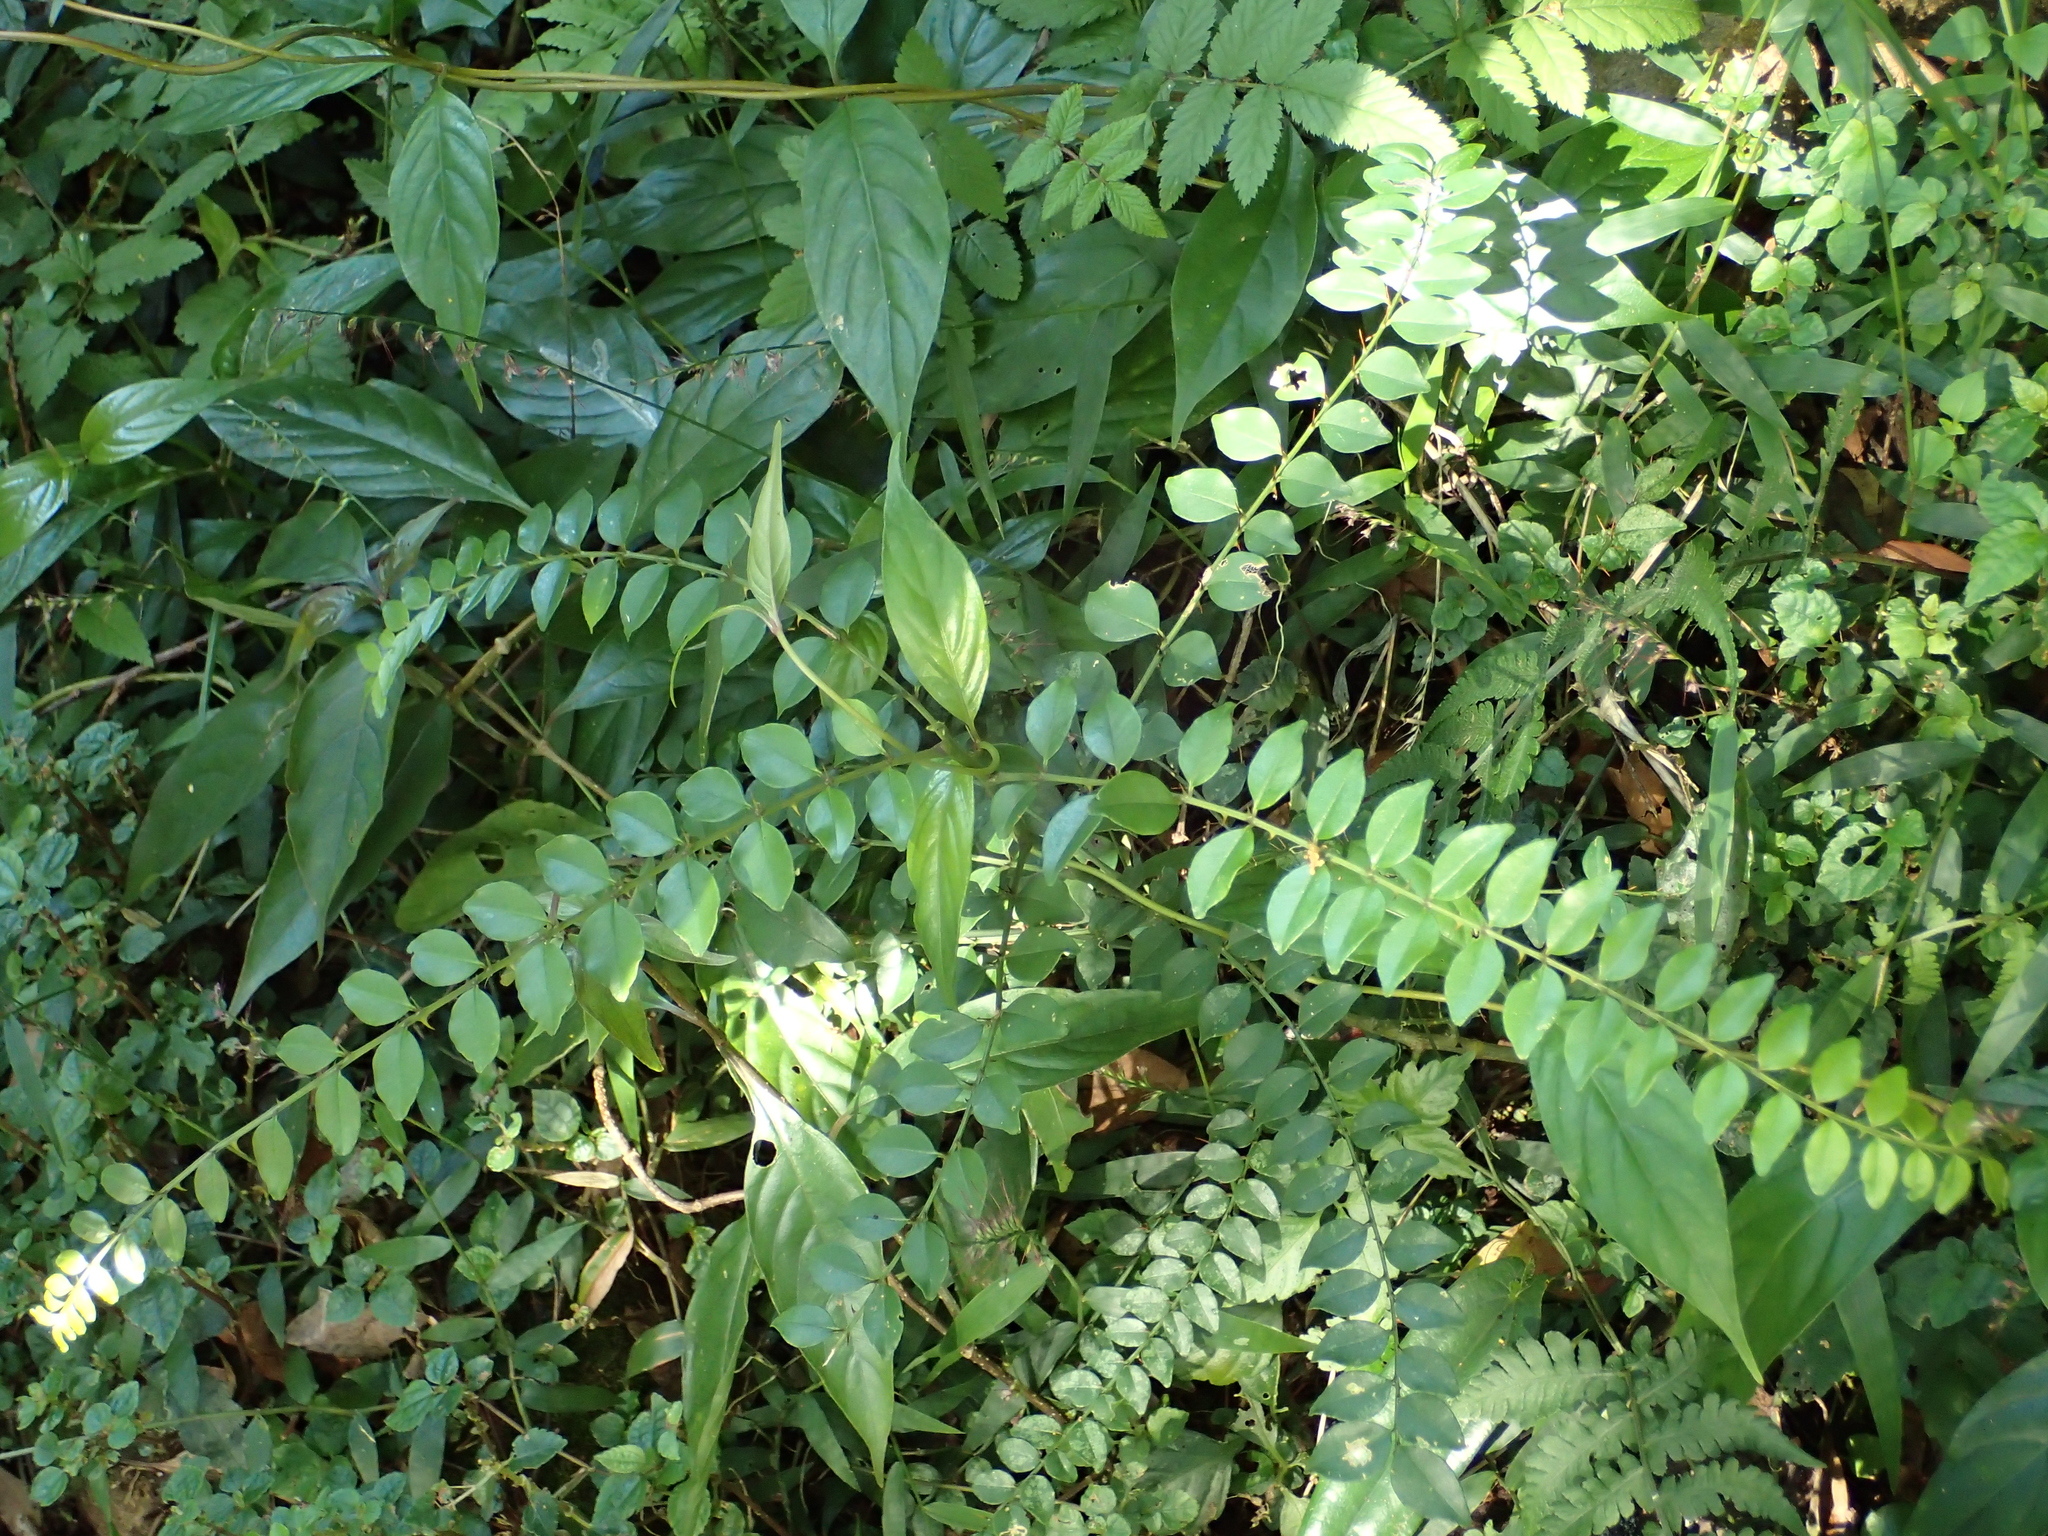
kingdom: Plantae
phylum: Tracheophyta
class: Magnoliopsida
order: Sapindales
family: Rutaceae
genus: Zanthoxylum
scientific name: Zanthoxylum scandens
